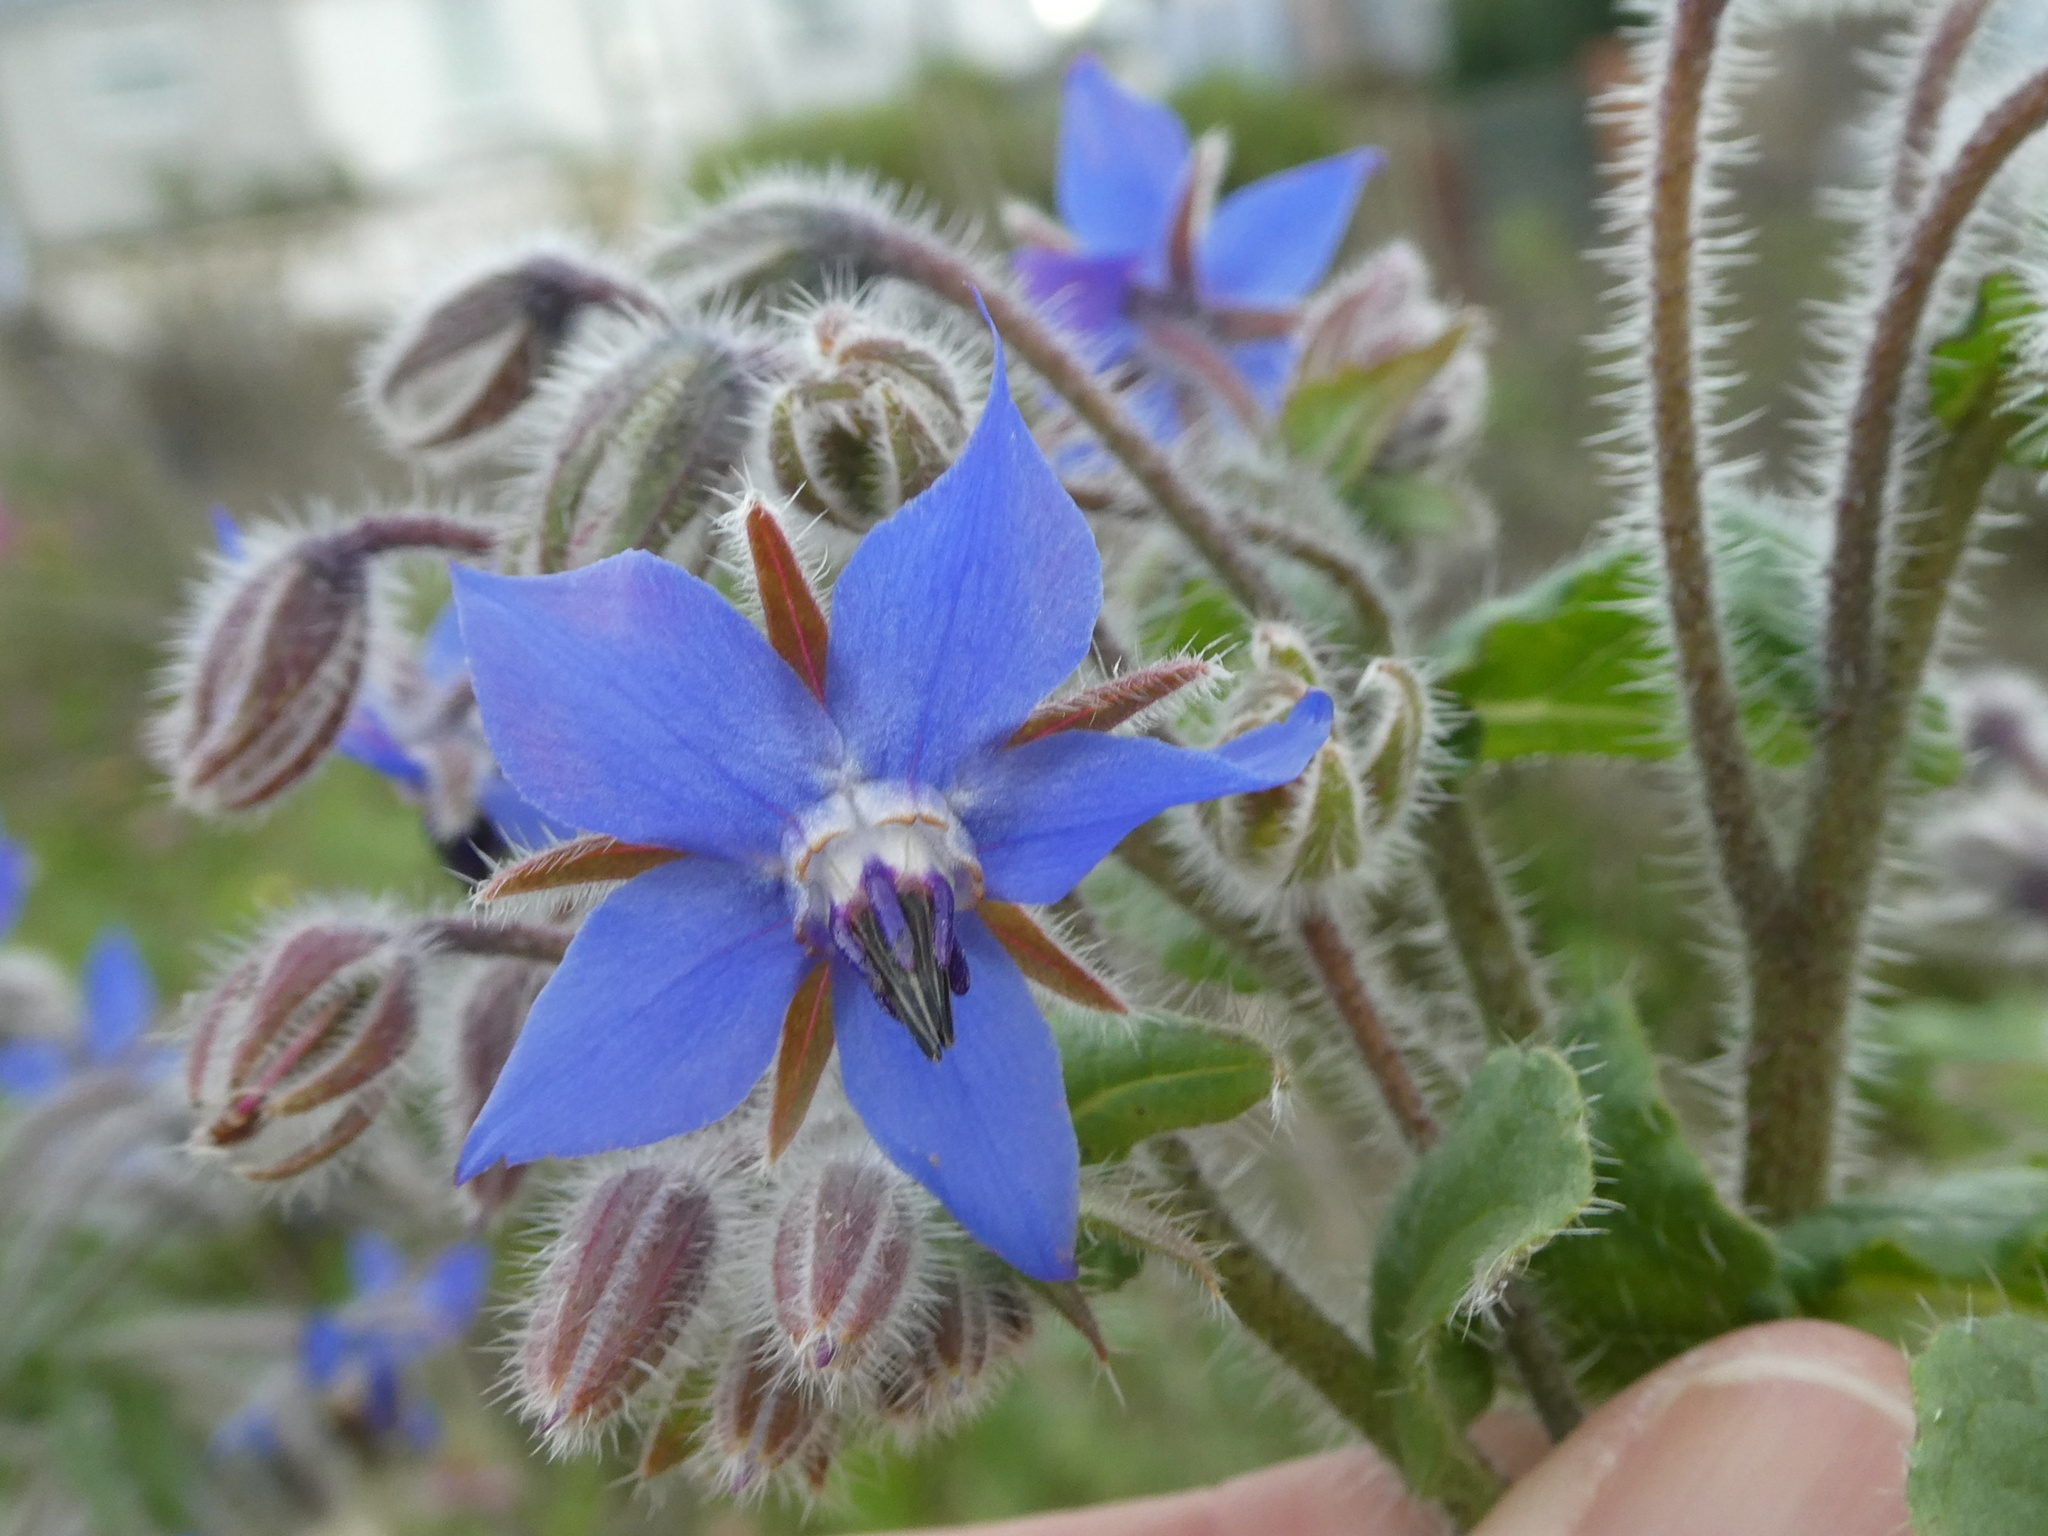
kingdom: Plantae
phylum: Tracheophyta
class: Magnoliopsida
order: Boraginales
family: Boraginaceae
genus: Borago
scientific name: Borago officinalis
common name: Borage
